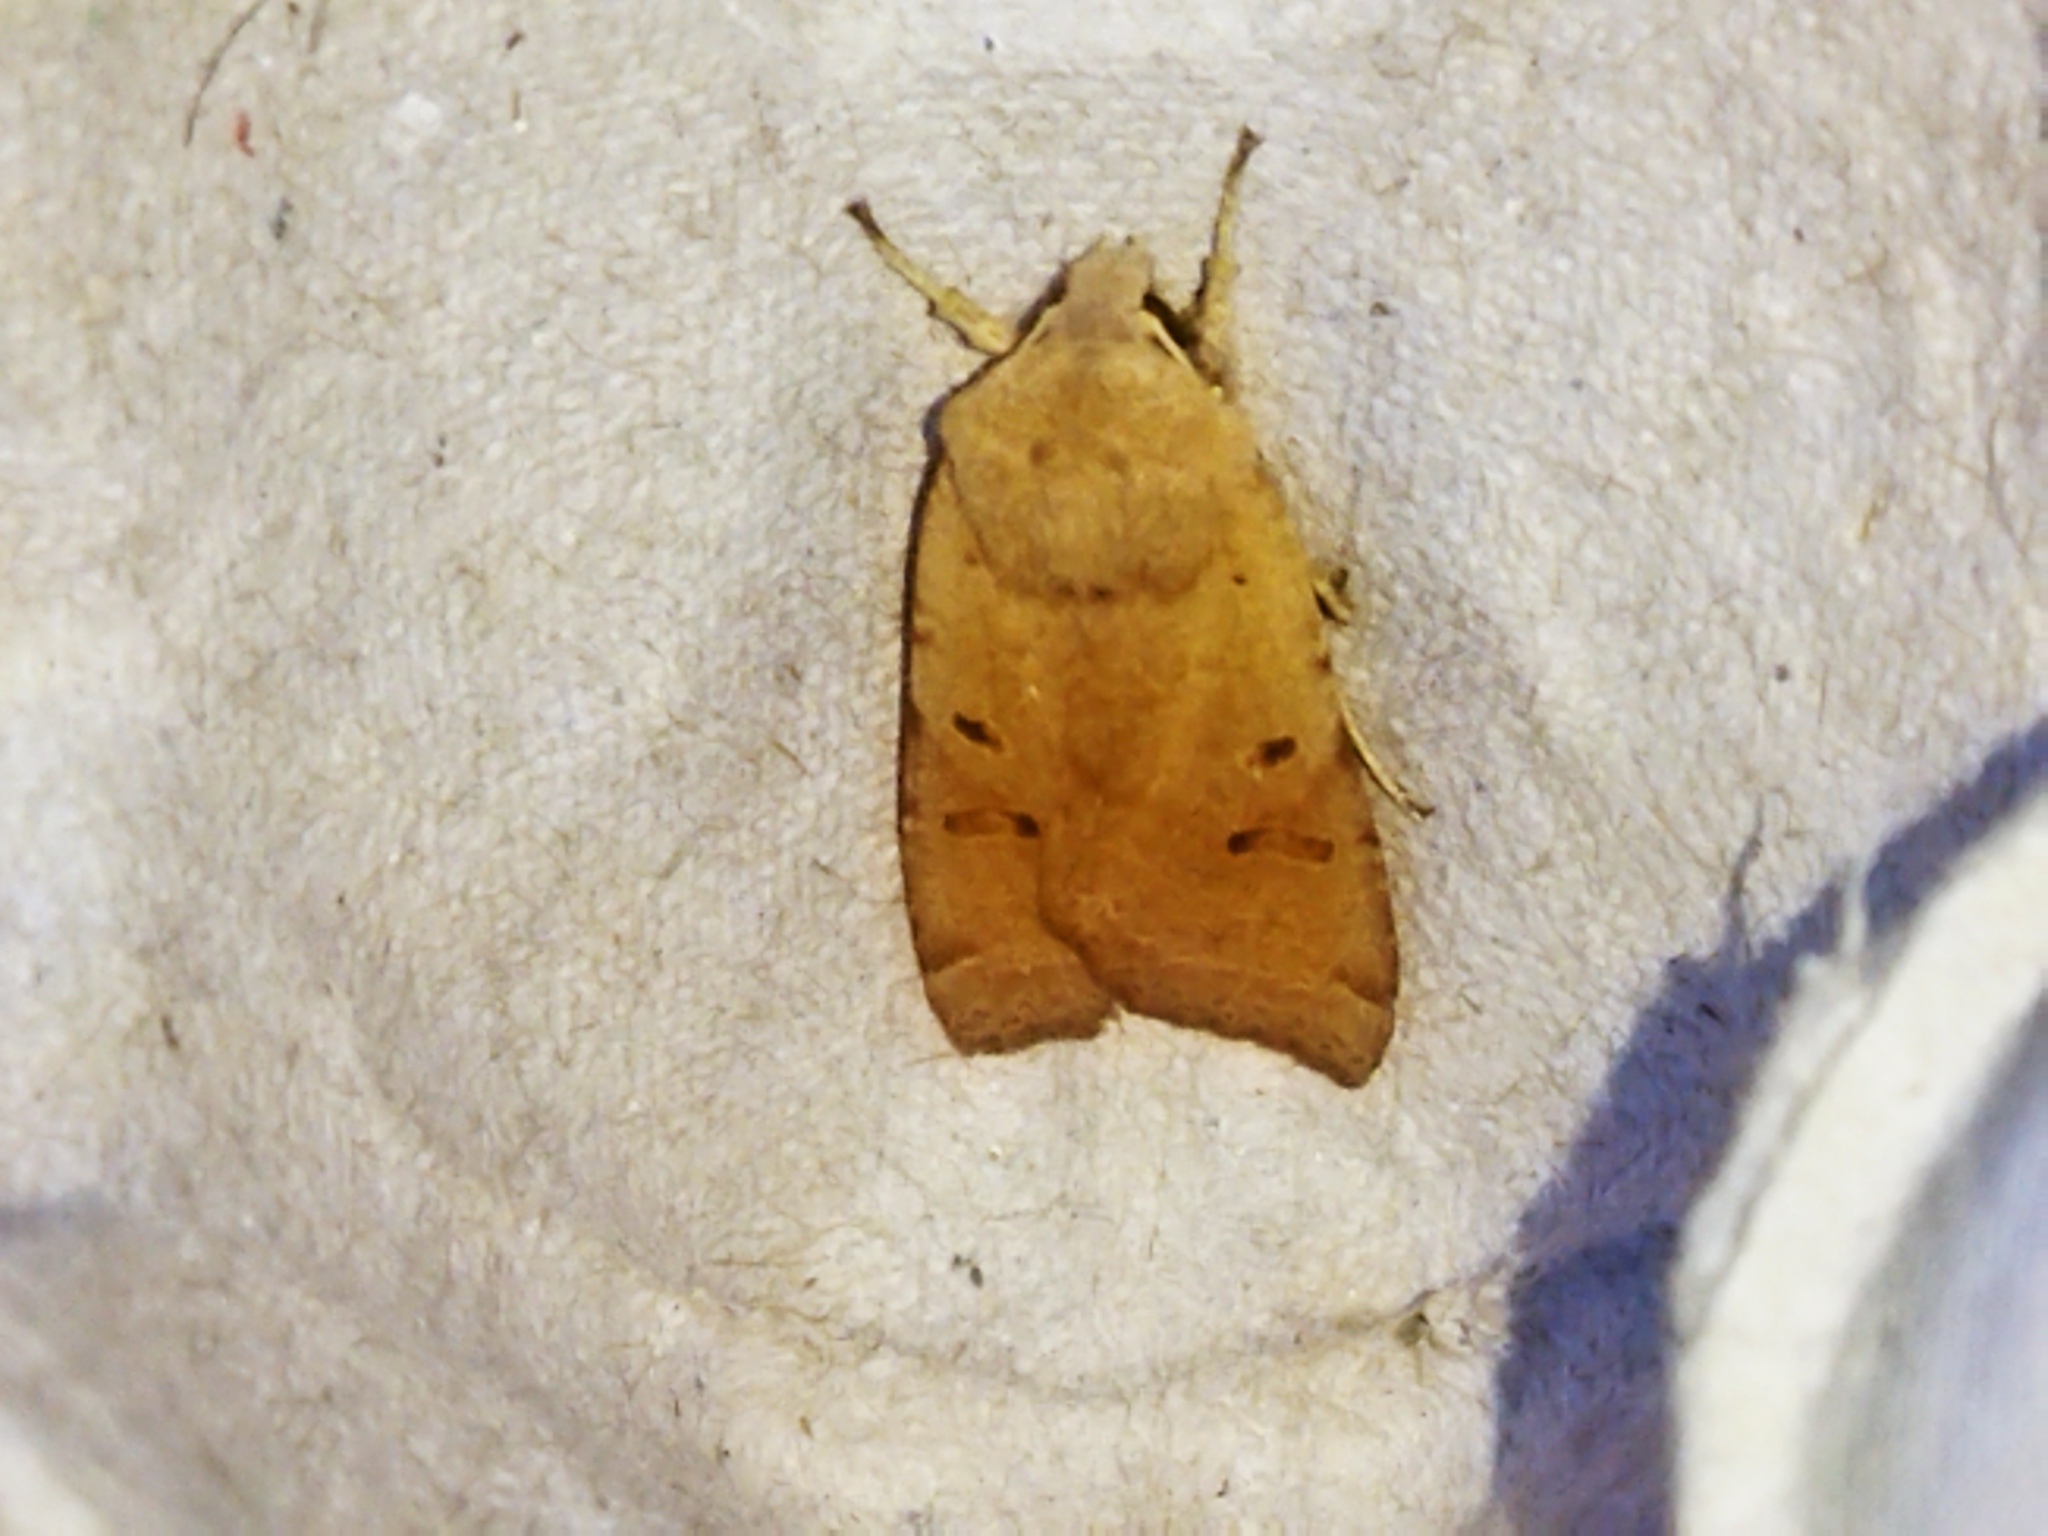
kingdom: Animalia
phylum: Arthropoda
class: Insecta
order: Lepidoptera
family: Noctuidae
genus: Agrochola
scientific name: Agrochola lychnidis
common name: Beaded chestnut
